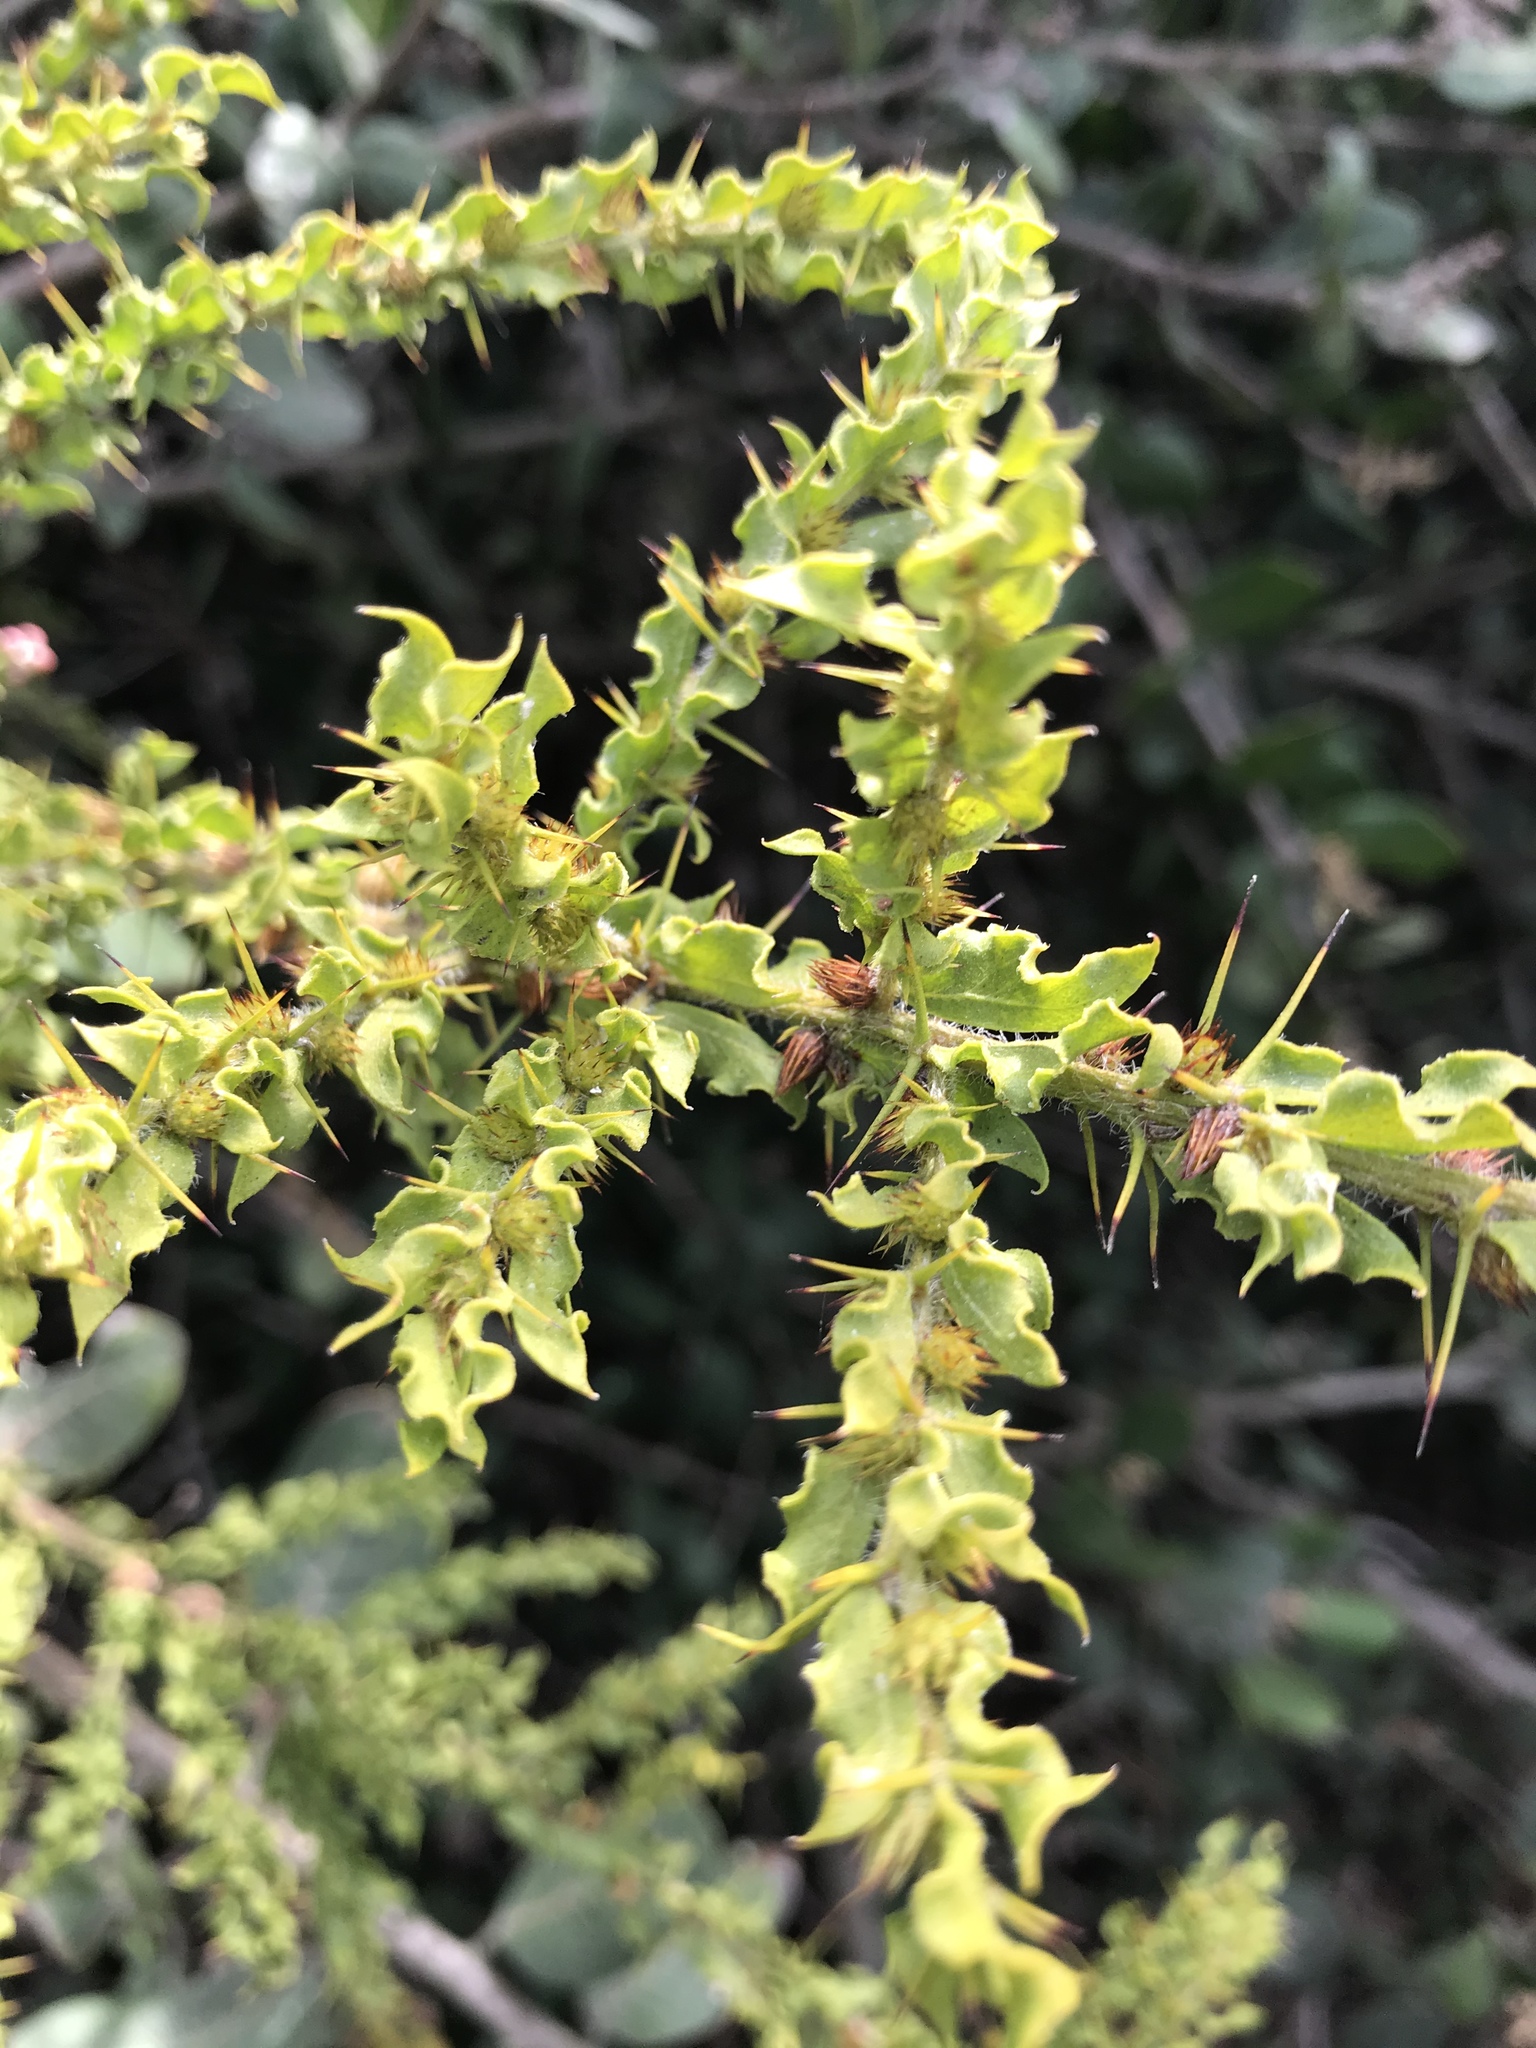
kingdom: Plantae
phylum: Tracheophyta
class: Magnoliopsida
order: Fabales
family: Fabaceae
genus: Acacia
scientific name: Acacia paradoxa
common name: Paradox acacia
